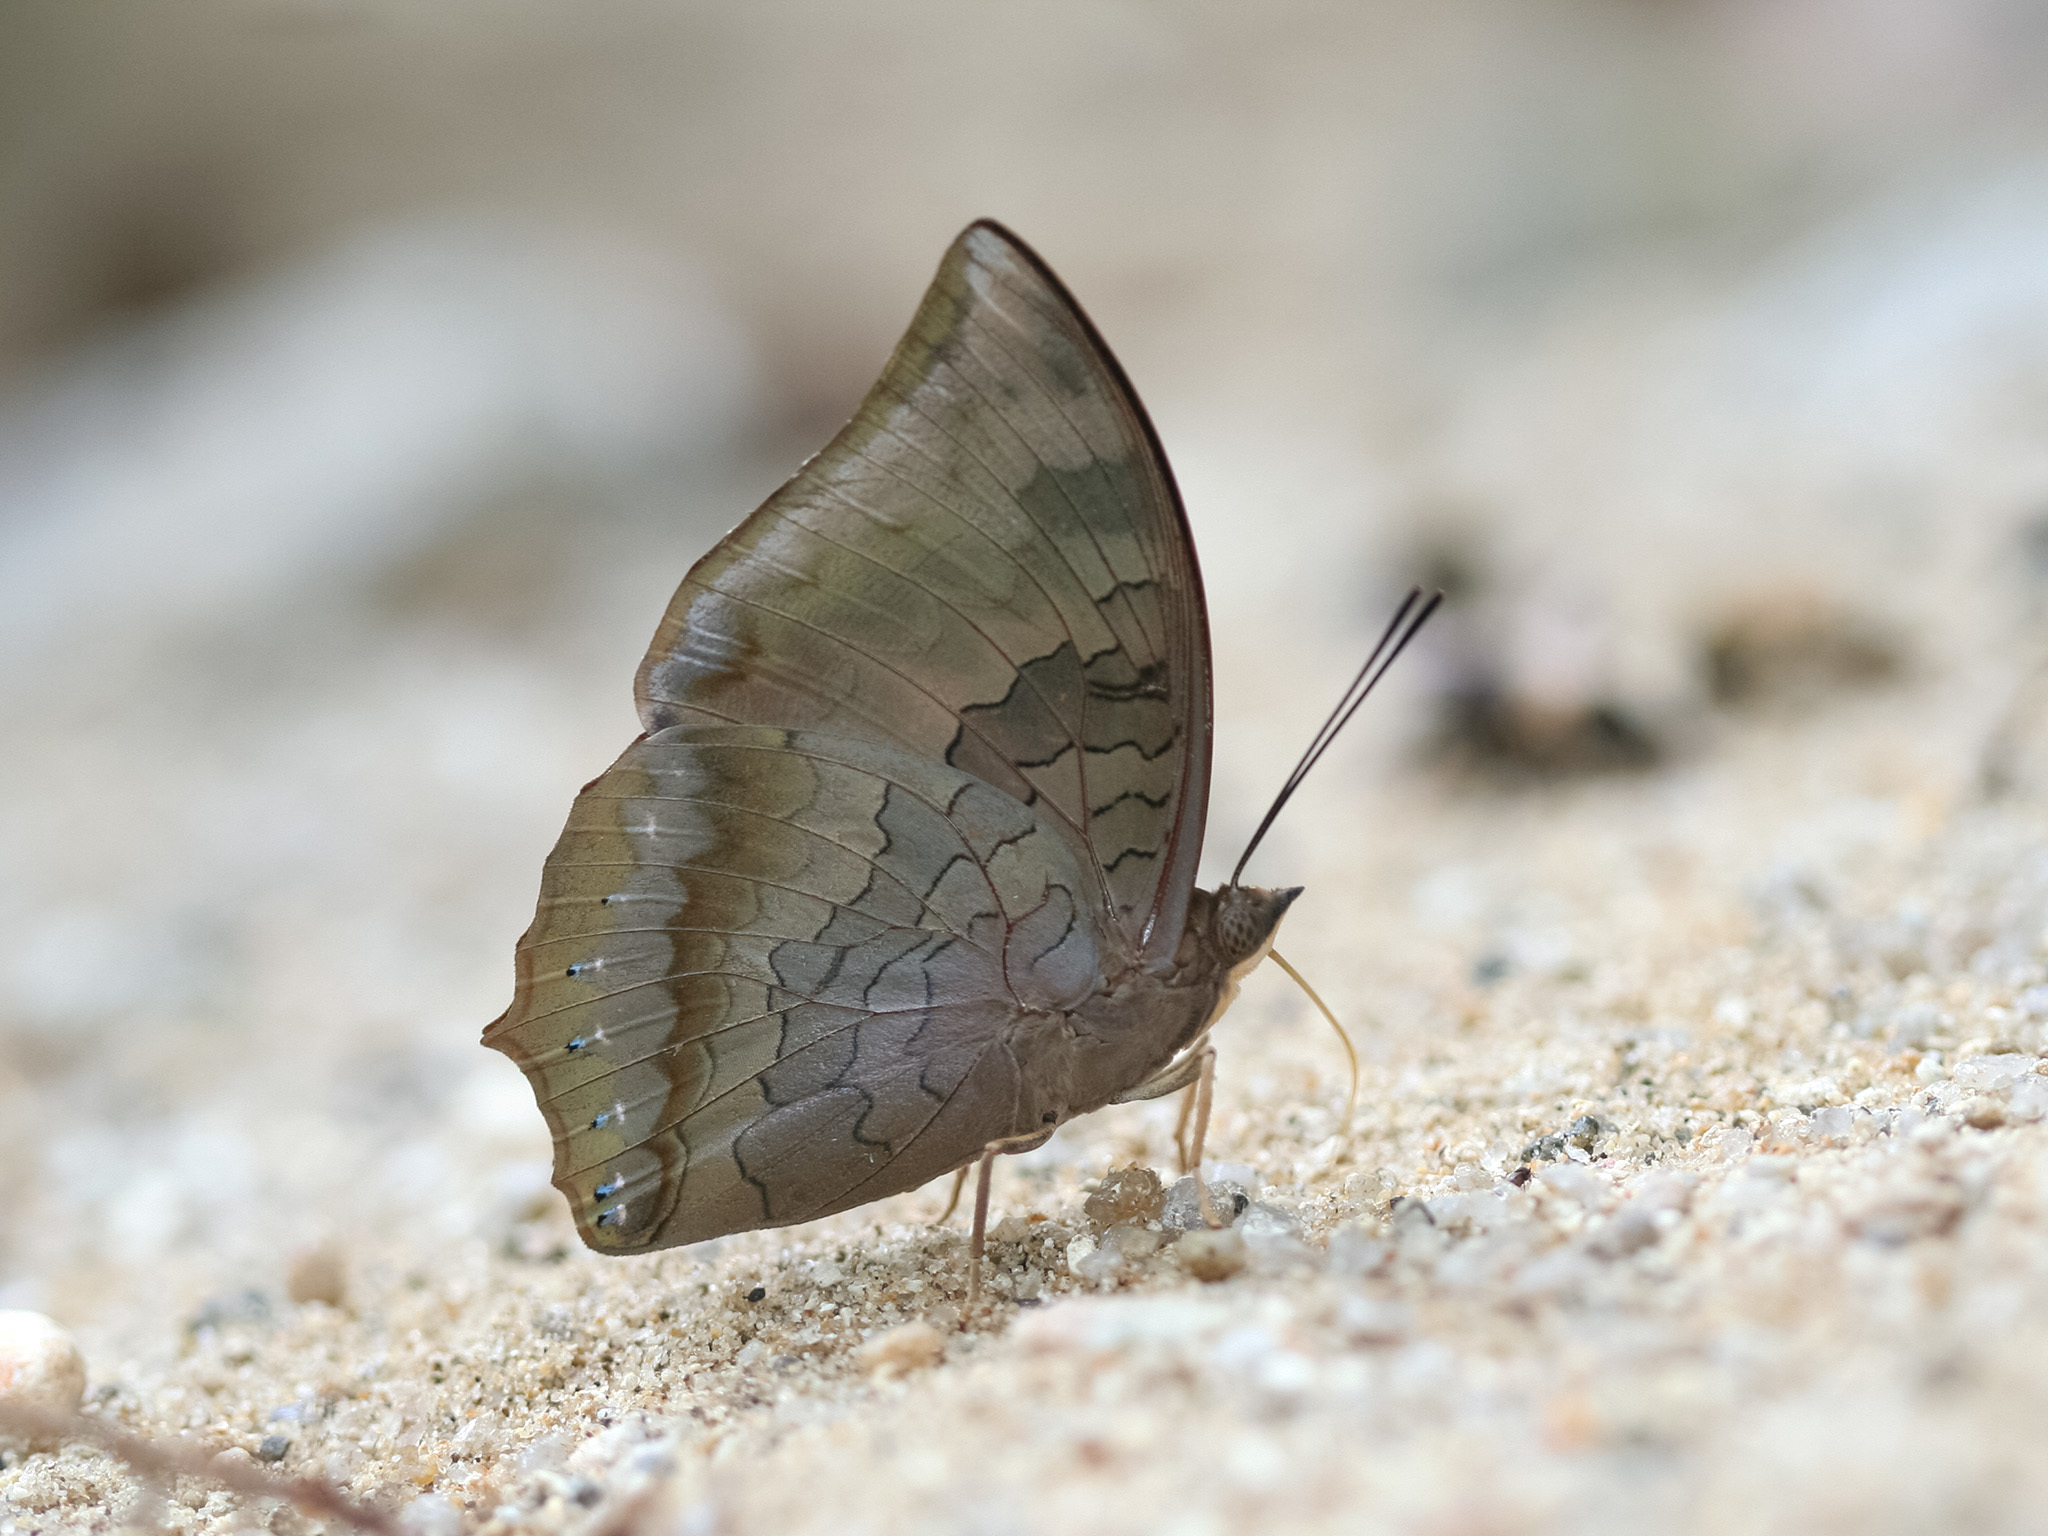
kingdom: Animalia
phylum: Arthropoda
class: Insecta
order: Lepidoptera
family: Nymphalidae
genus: Charaxes
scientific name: Charaxes bernardus
